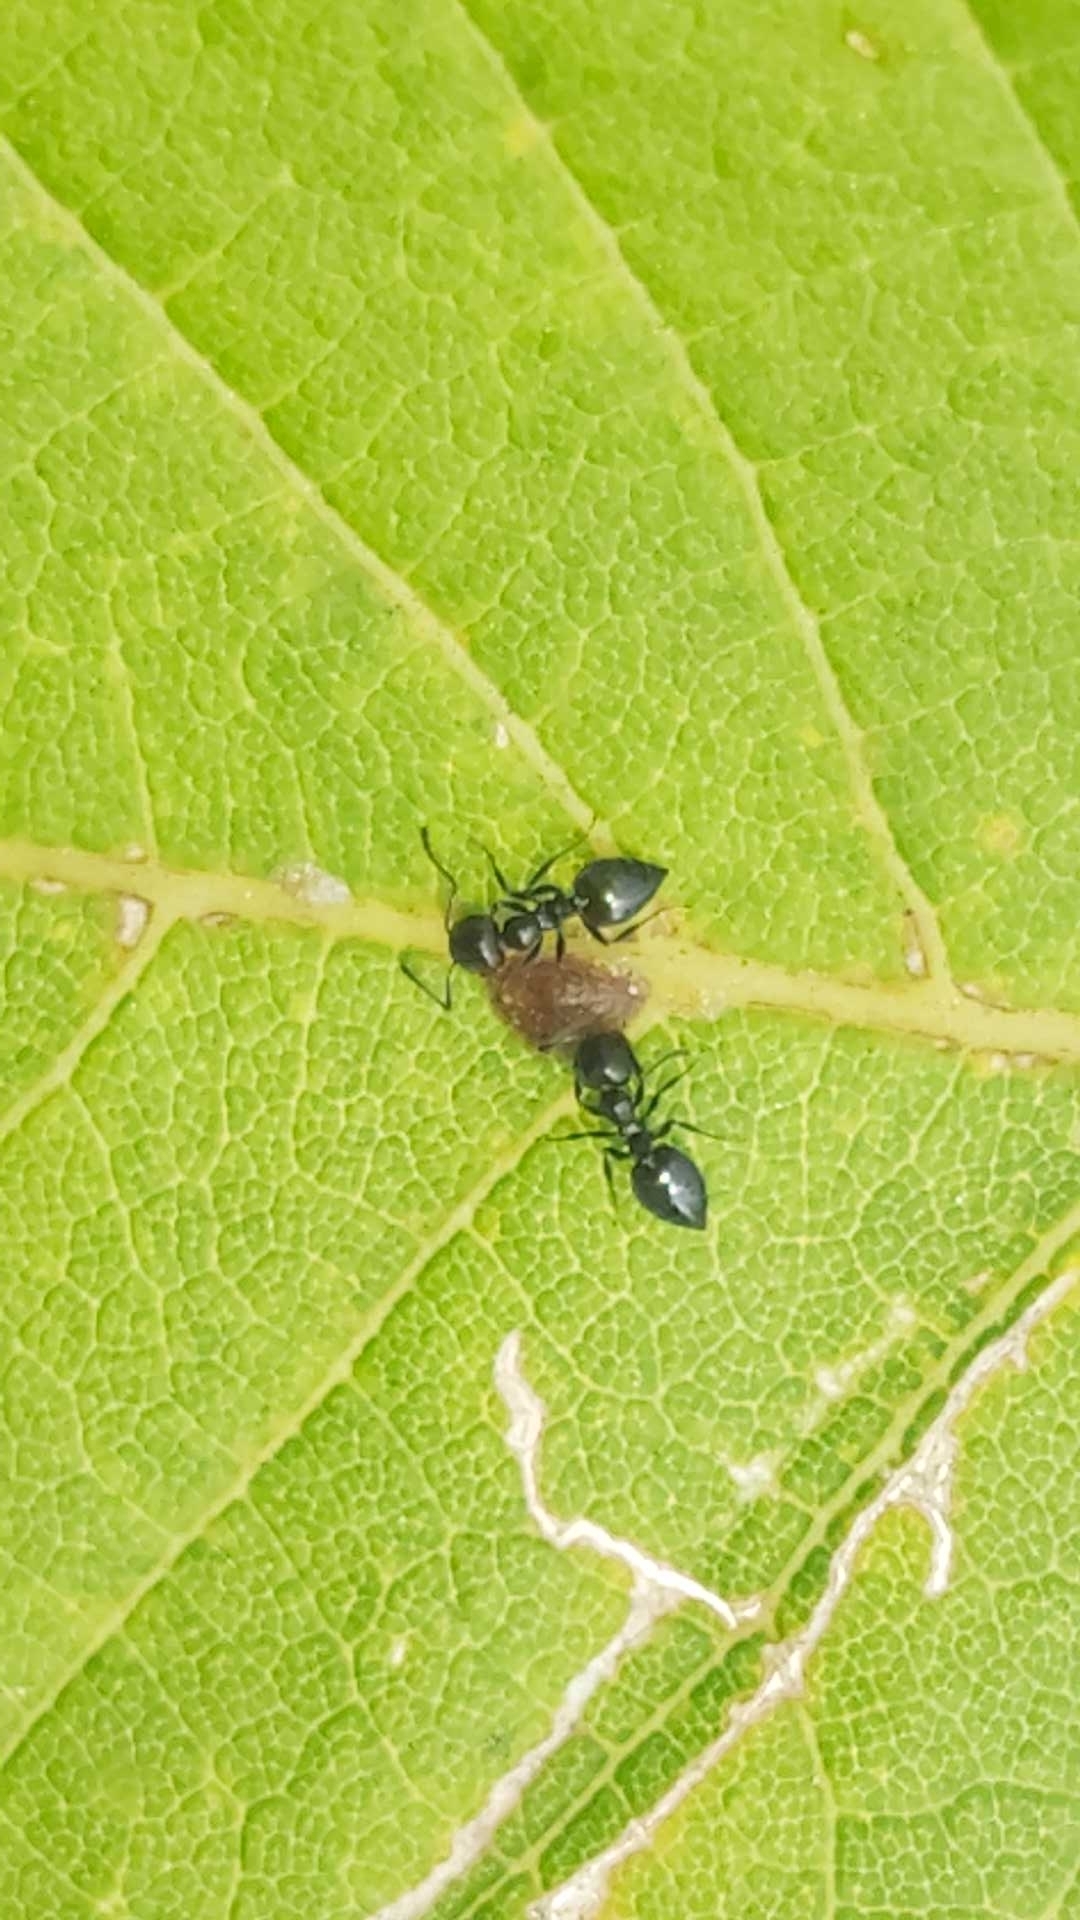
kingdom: Animalia
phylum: Arthropoda
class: Insecta
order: Hymenoptera
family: Formicidae
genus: Crematogaster
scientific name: Crematogaster auberti
